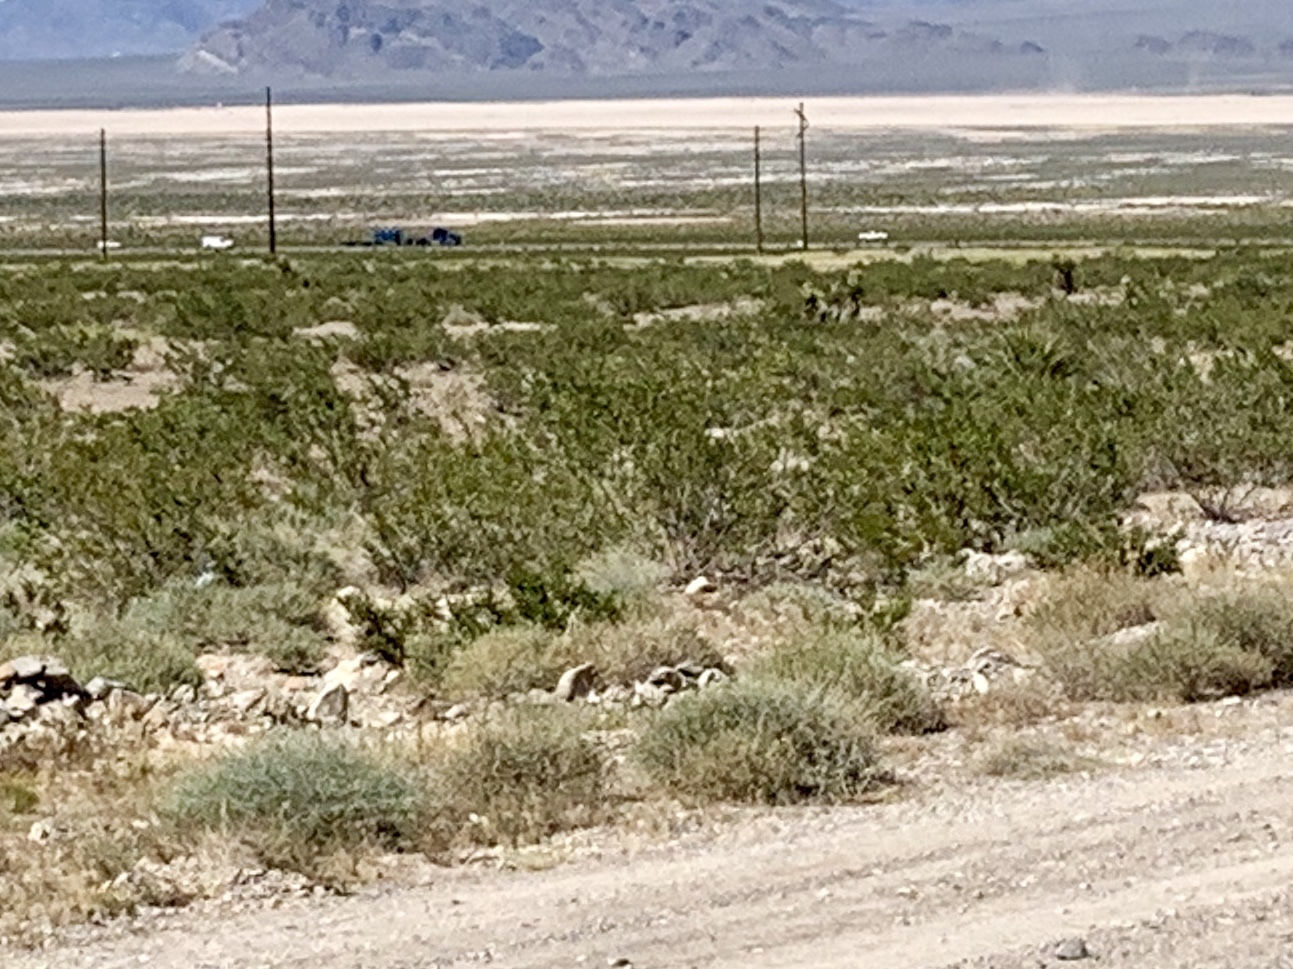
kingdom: Plantae
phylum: Tracheophyta
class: Magnoliopsida
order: Zygophyllales
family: Zygophyllaceae
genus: Larrea
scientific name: Larrea tridentata
